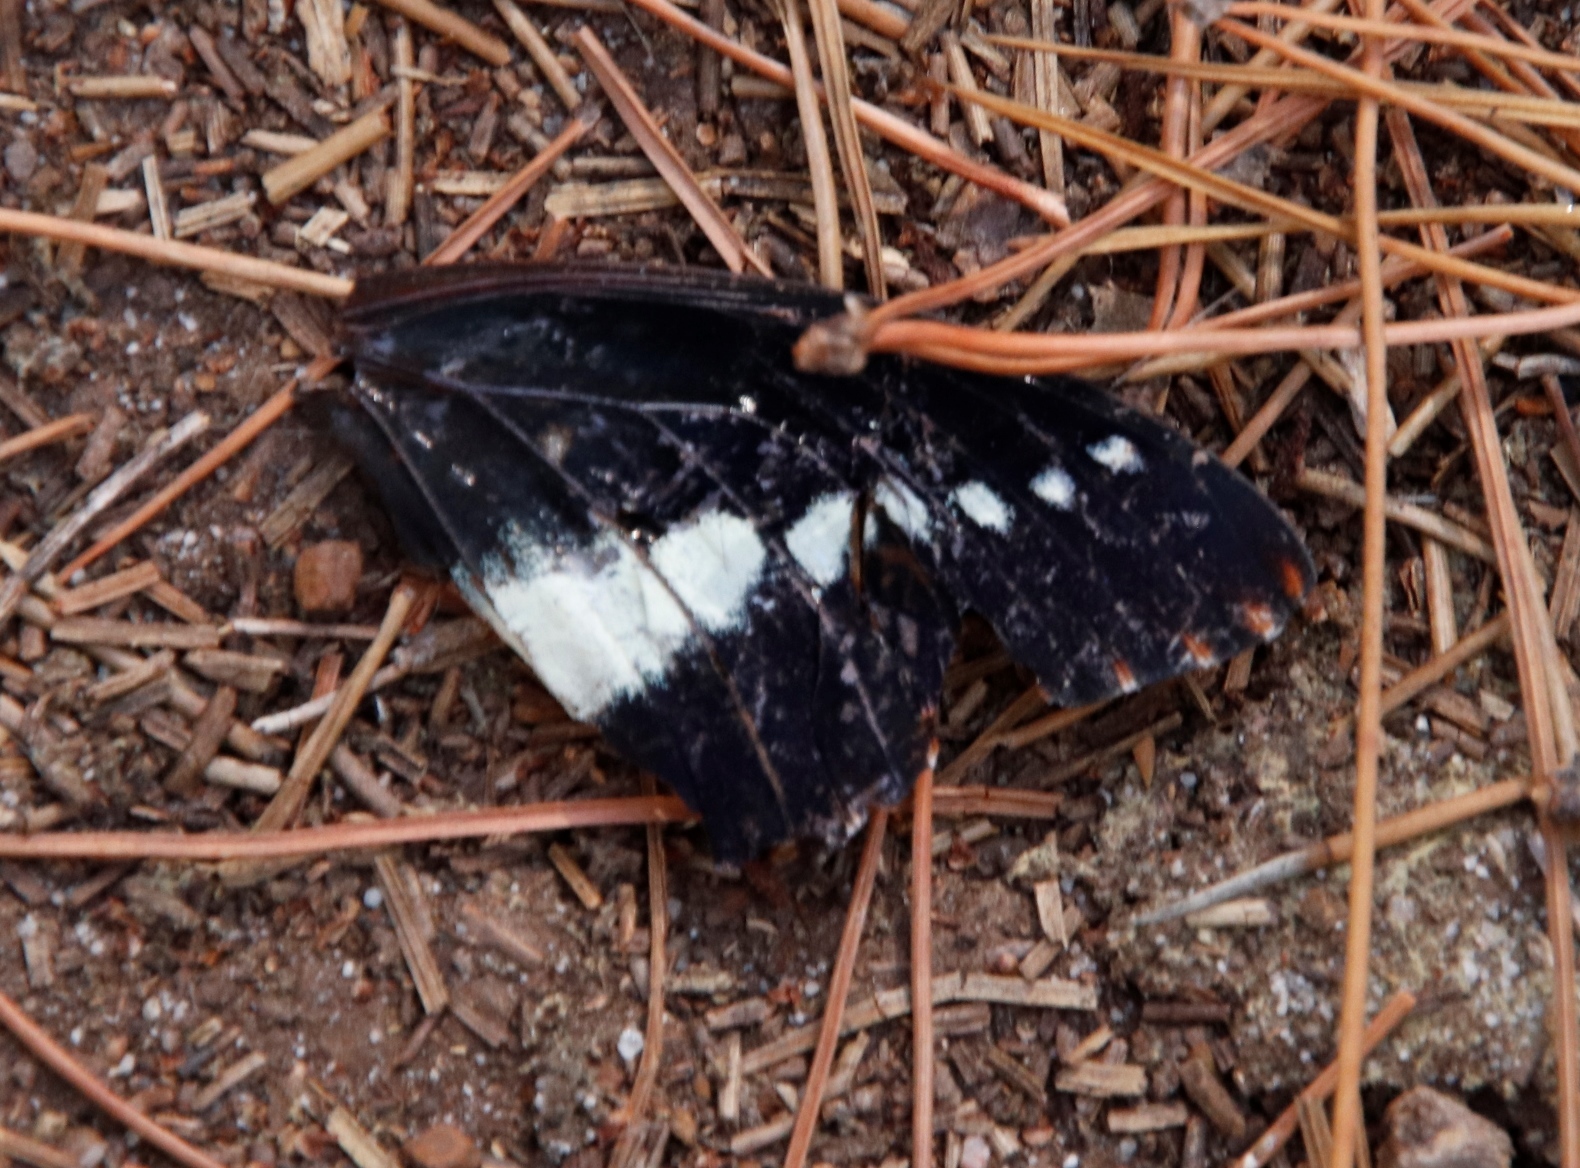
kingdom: Animalia
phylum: Arthropoda
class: Insecta
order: Lepidoptera
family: Nymphalidae
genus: Charaxes
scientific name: Charaxes brutus
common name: White-barred charaxes
